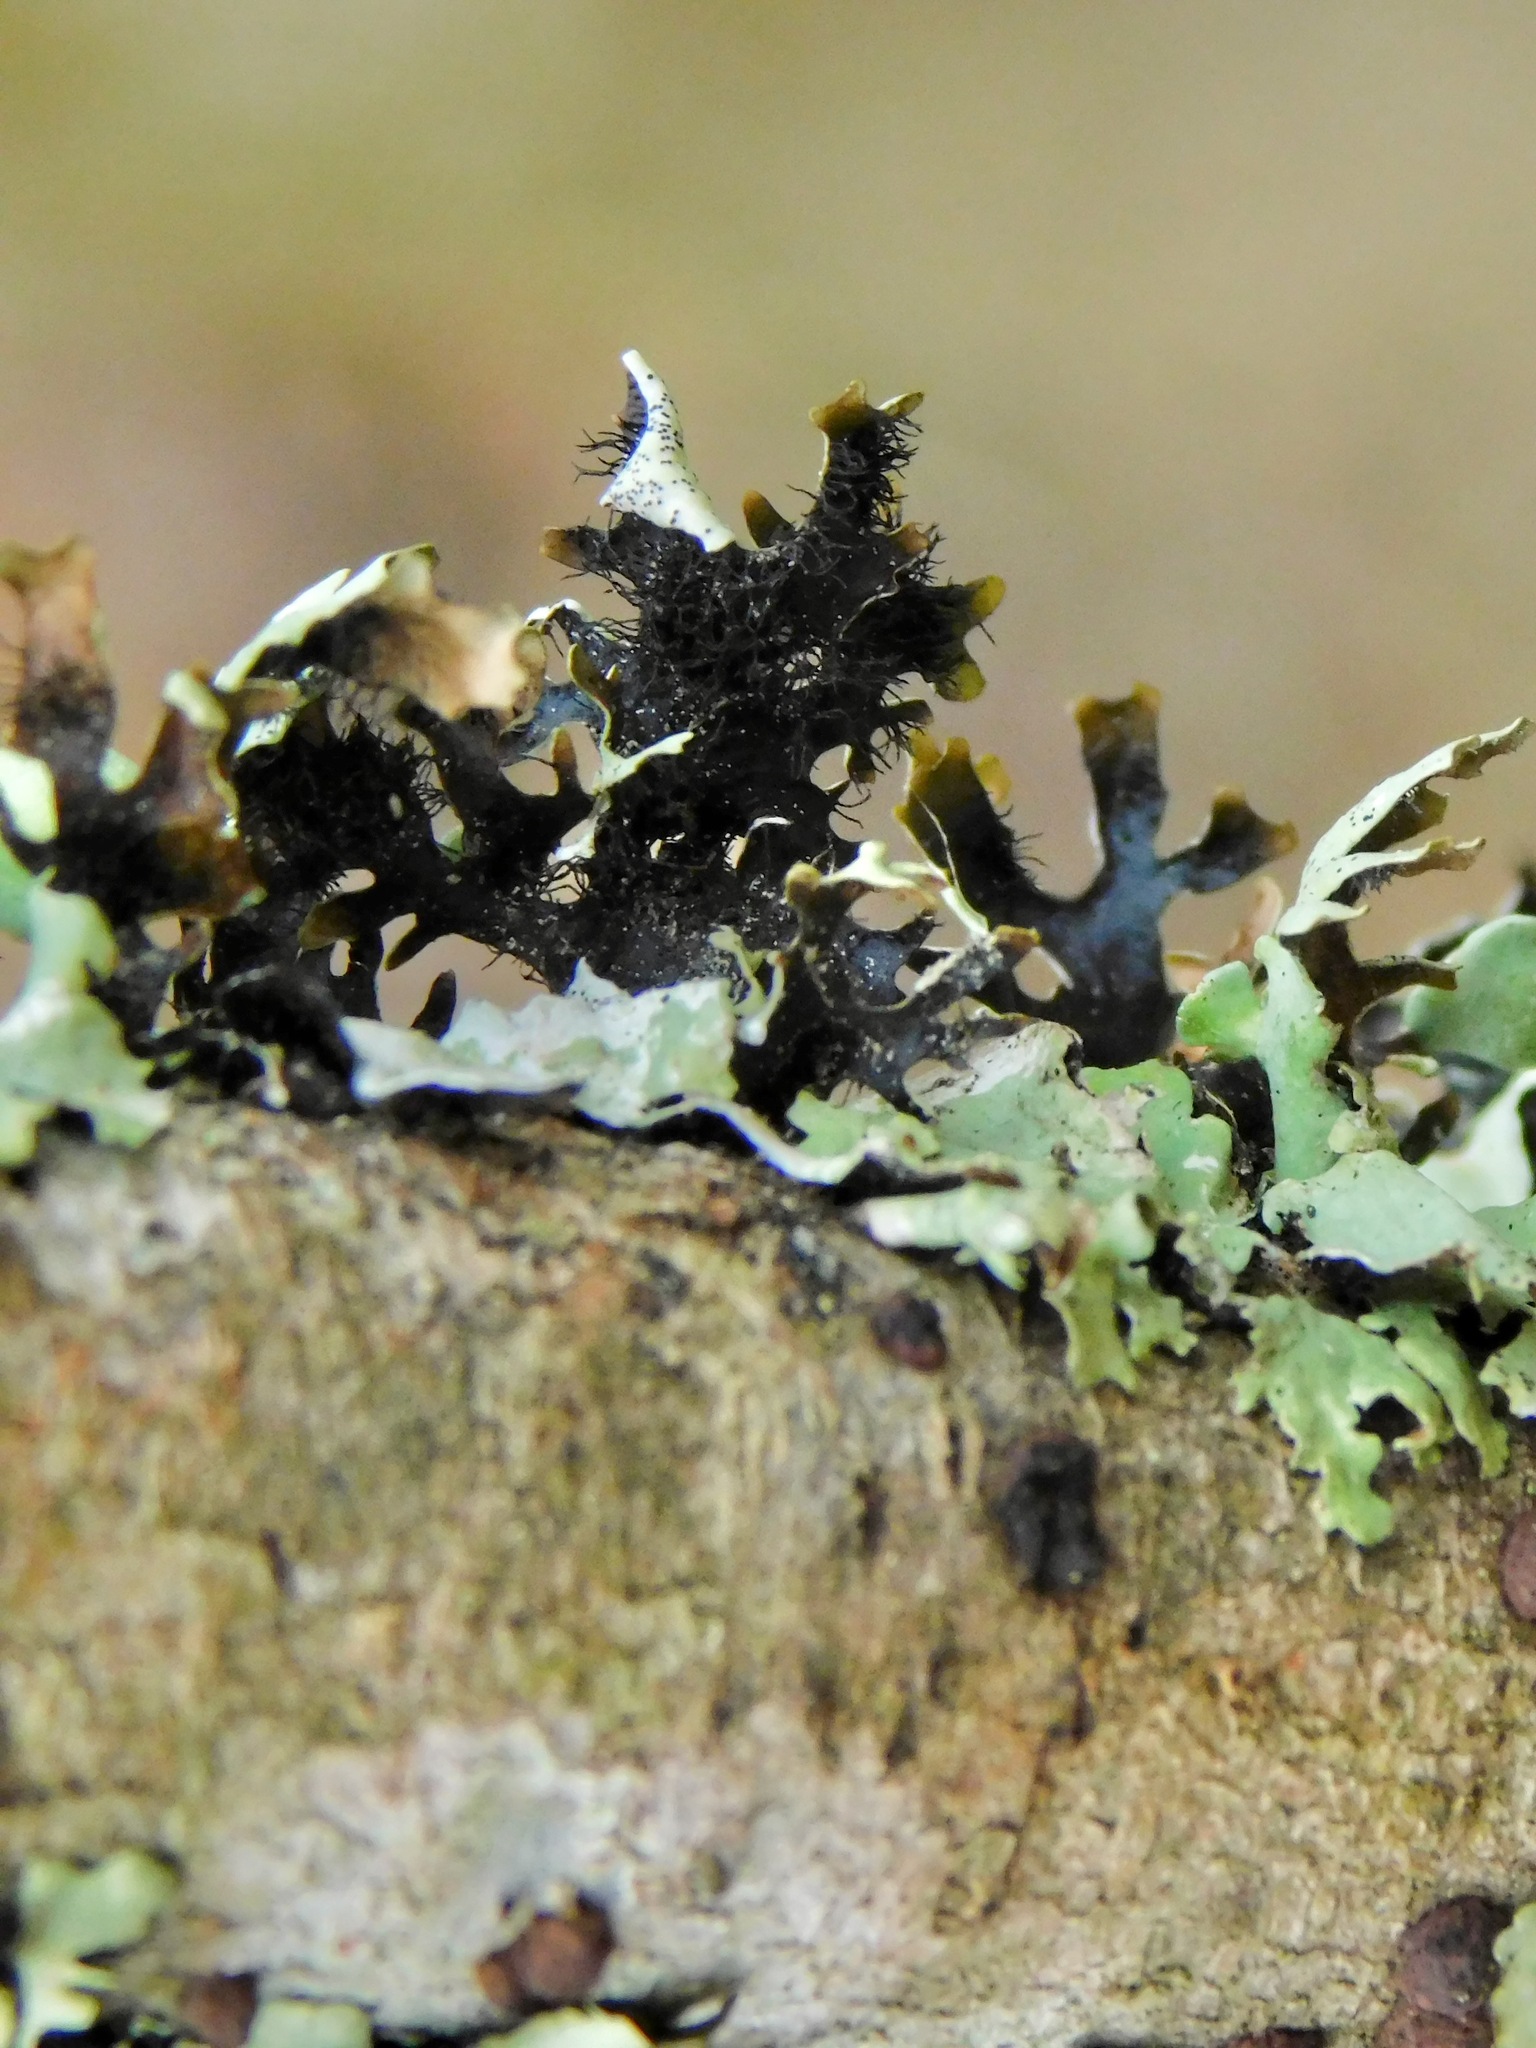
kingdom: Fungi
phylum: Ascomycota
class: Lecanoromycetes
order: Lecanorales
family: Parmeliaceae
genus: Parmotrema
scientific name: Parmotrema submarginale
